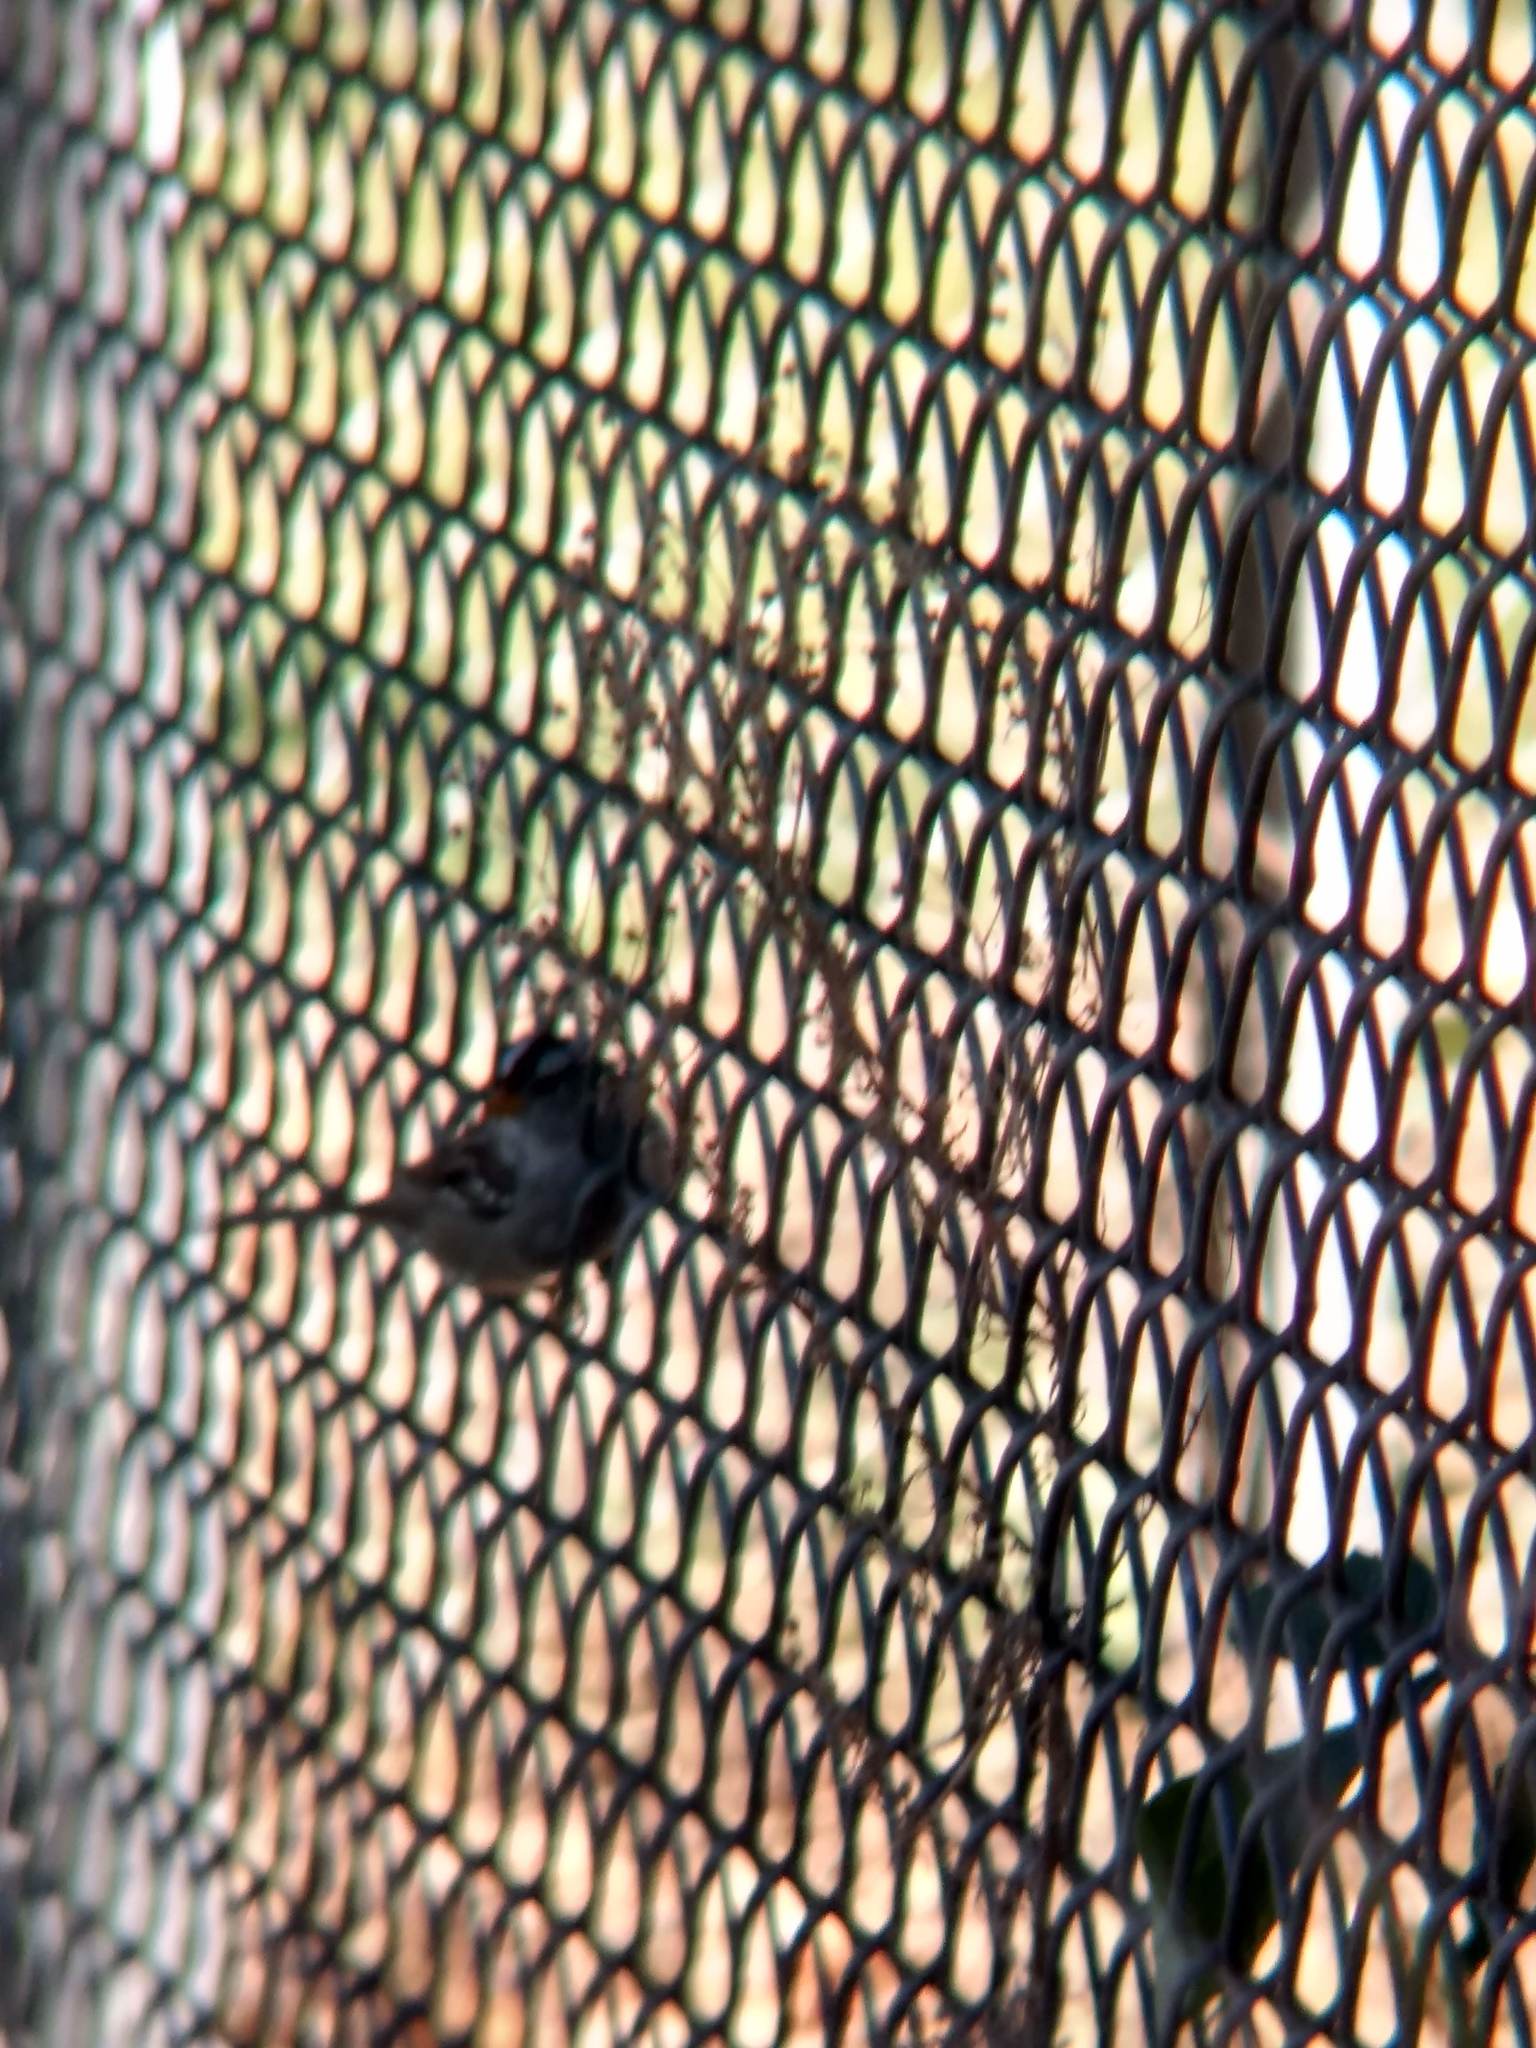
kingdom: Animalia
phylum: Chordata
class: Aves
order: Passeriformes
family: Passerellidae
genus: Zonotrichia
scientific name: Zonotrichia leucophrys
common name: White-crowned sparrow
